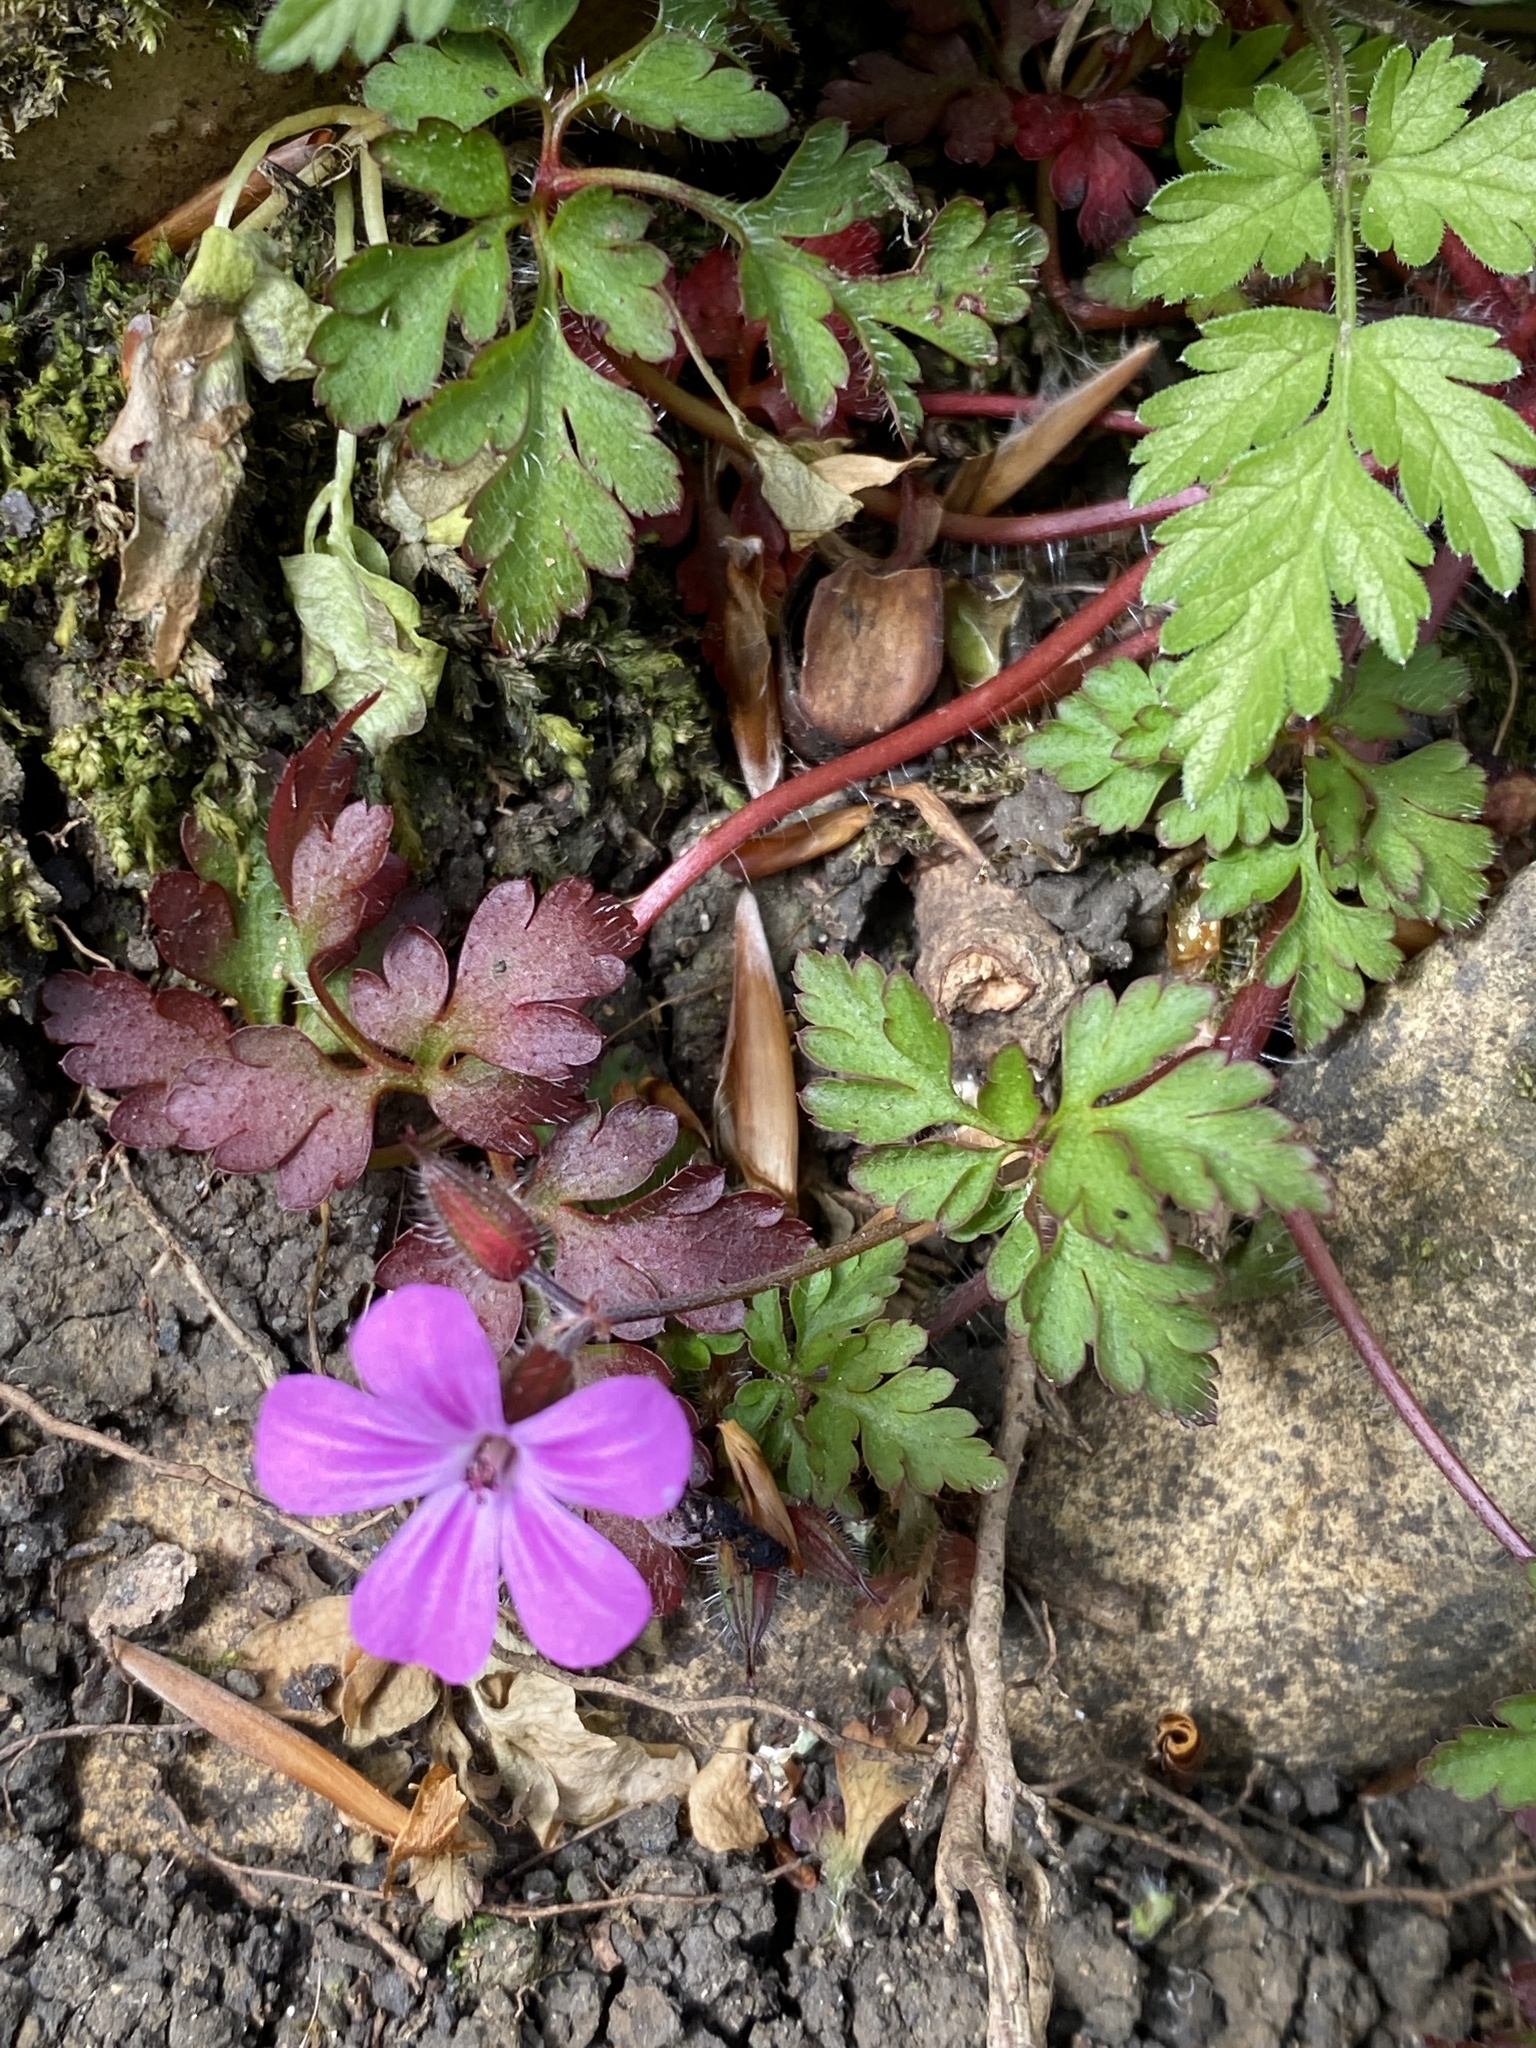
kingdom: Plantae
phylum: Tracheophyta
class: Magnoliopsida
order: Geraniales
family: Geraniaceae
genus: Geranium
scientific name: Geranium robertianum
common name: Herb-robert
